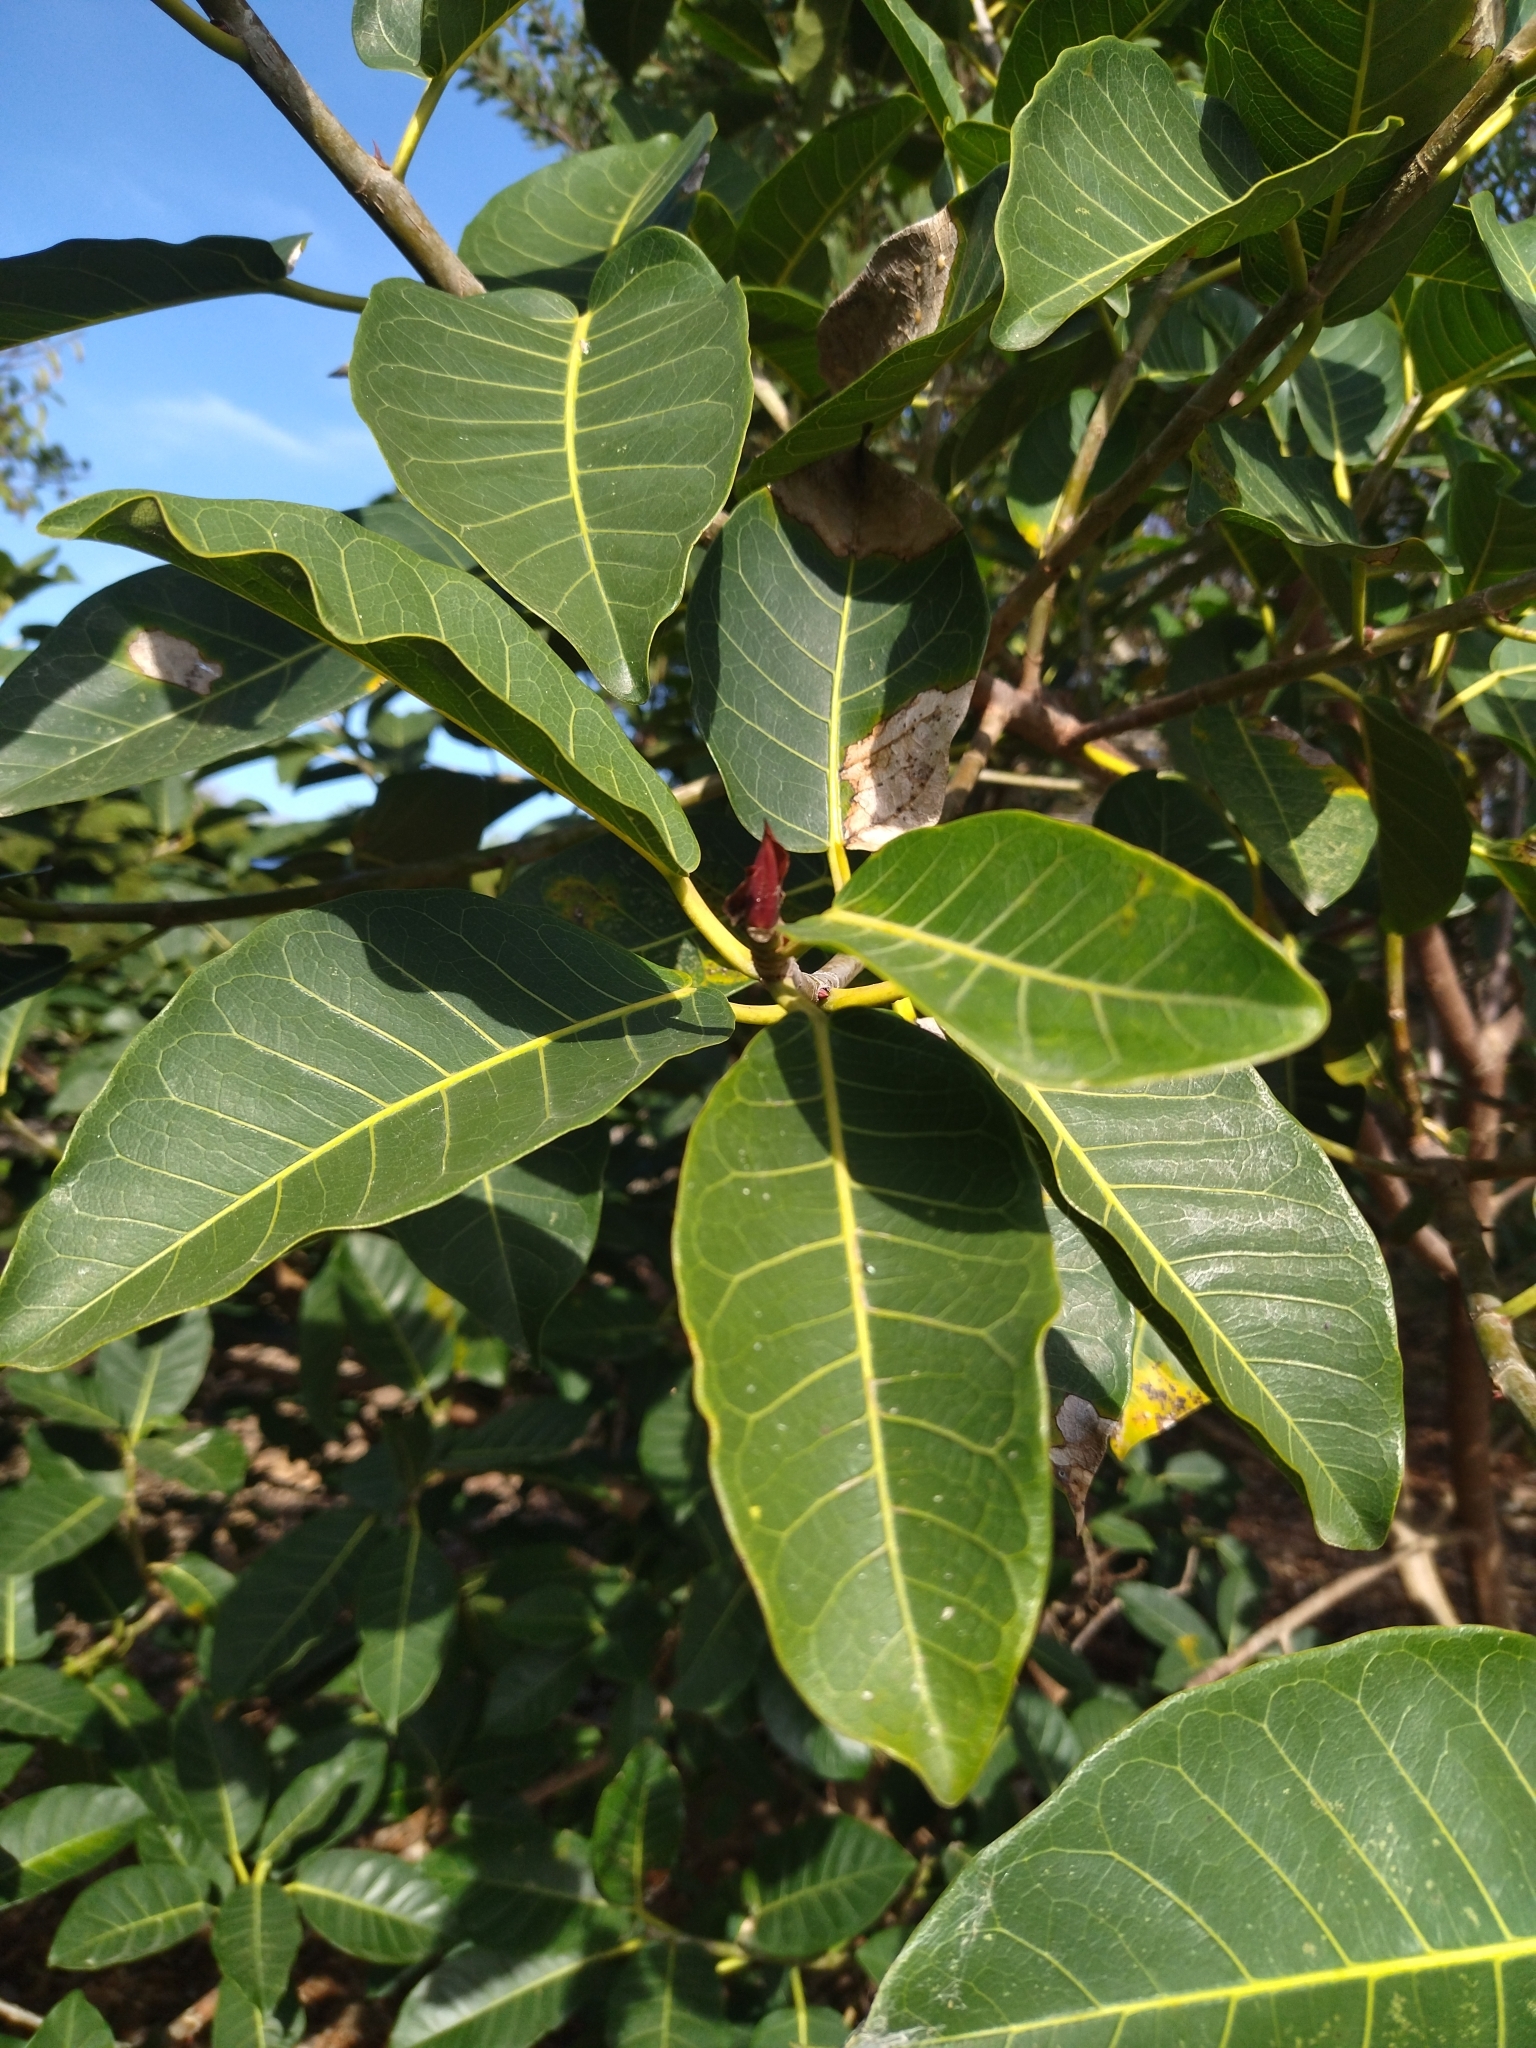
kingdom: Plantae
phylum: Tracheophyta
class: Magnoliopsida
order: Rosales
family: Moraceae
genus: Ficus
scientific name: Ficus luschnathiana
